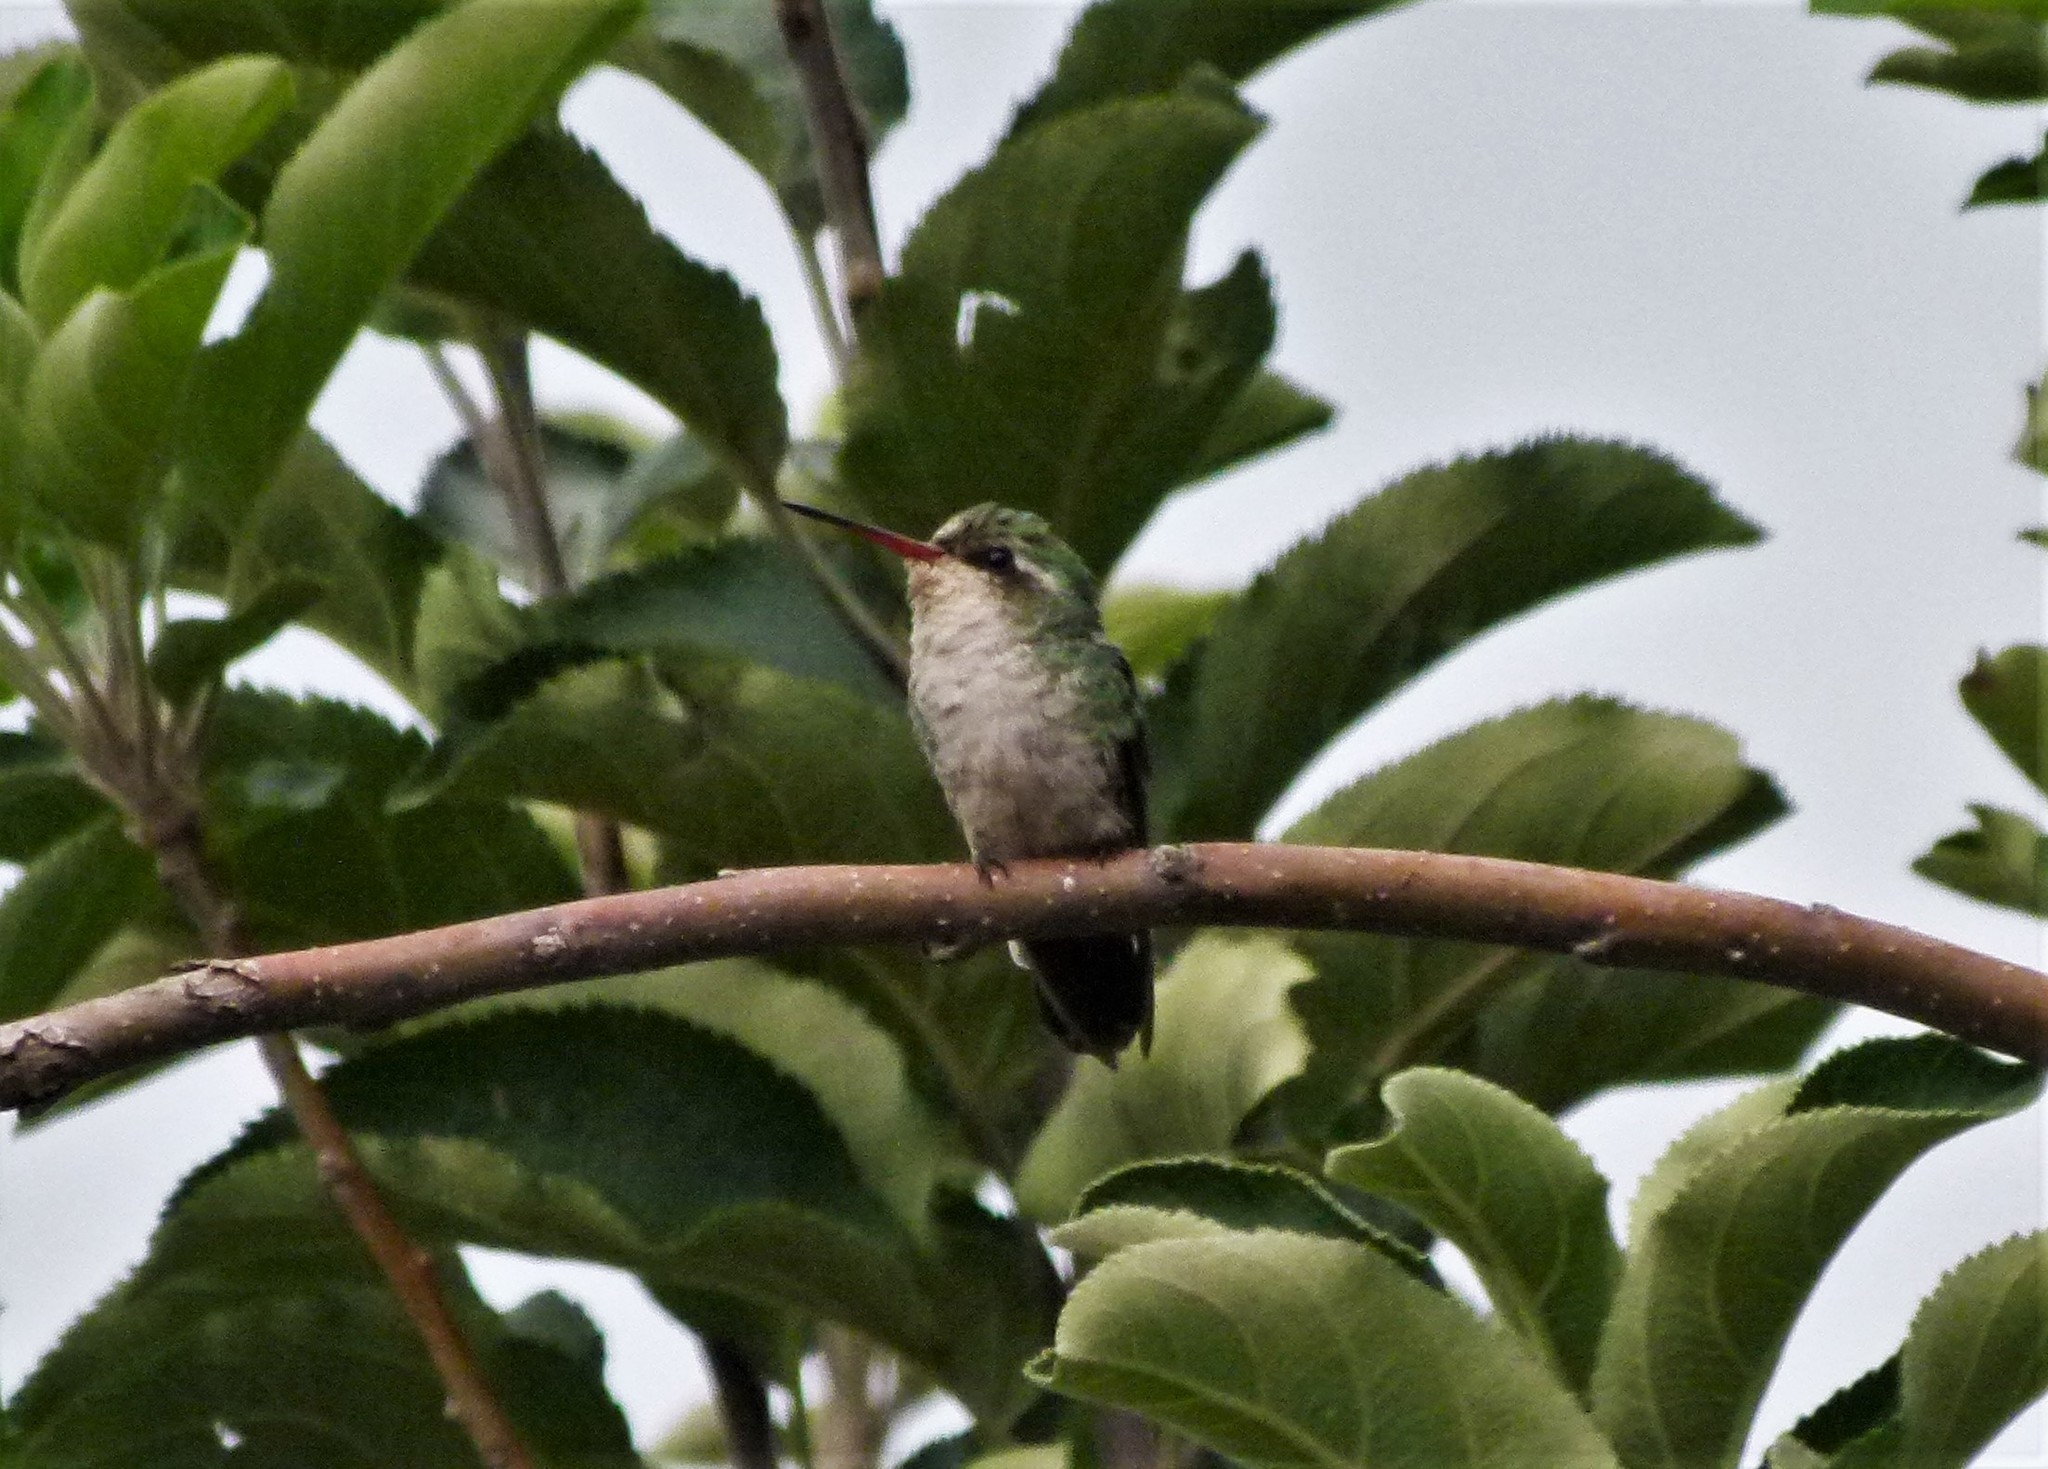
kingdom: Animalia
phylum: Chordata
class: Aves
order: Apodiformes
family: Trochilidae
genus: Chlorostilbon
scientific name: Chlorostilbon lucidus
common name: Glittering-bellied emerald
